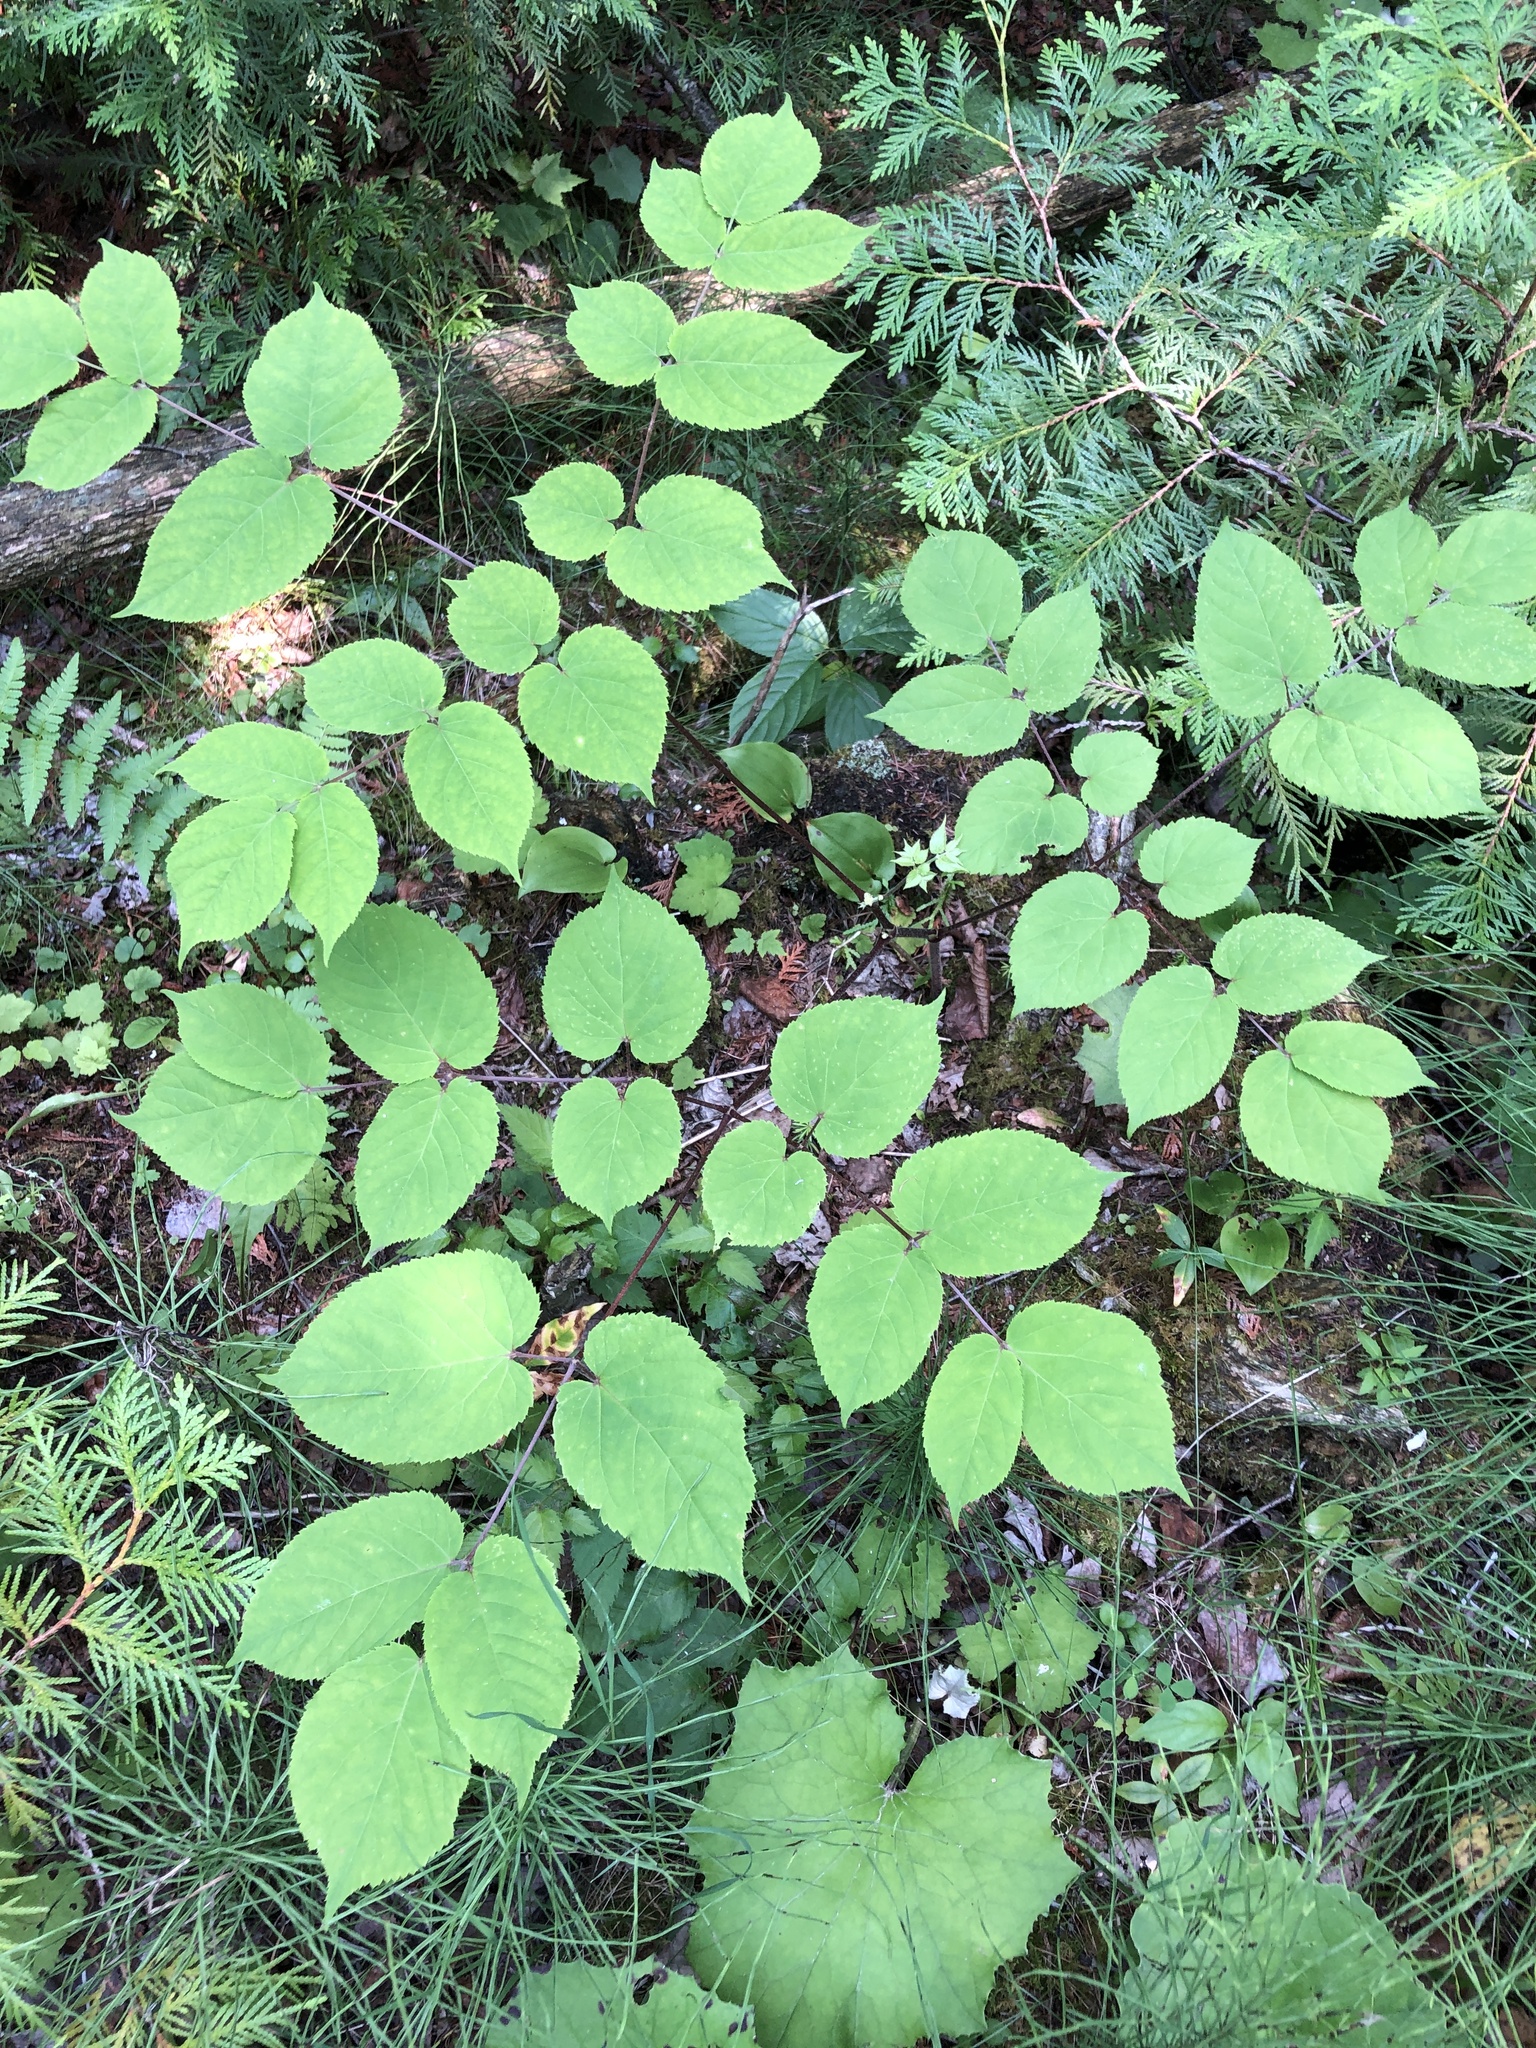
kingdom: Plantae
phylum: Tracheophyta
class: Magnoliopsida
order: Apiales
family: Araliaceae
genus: Aralia
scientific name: Aralia racemosa
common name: American-spikenard
